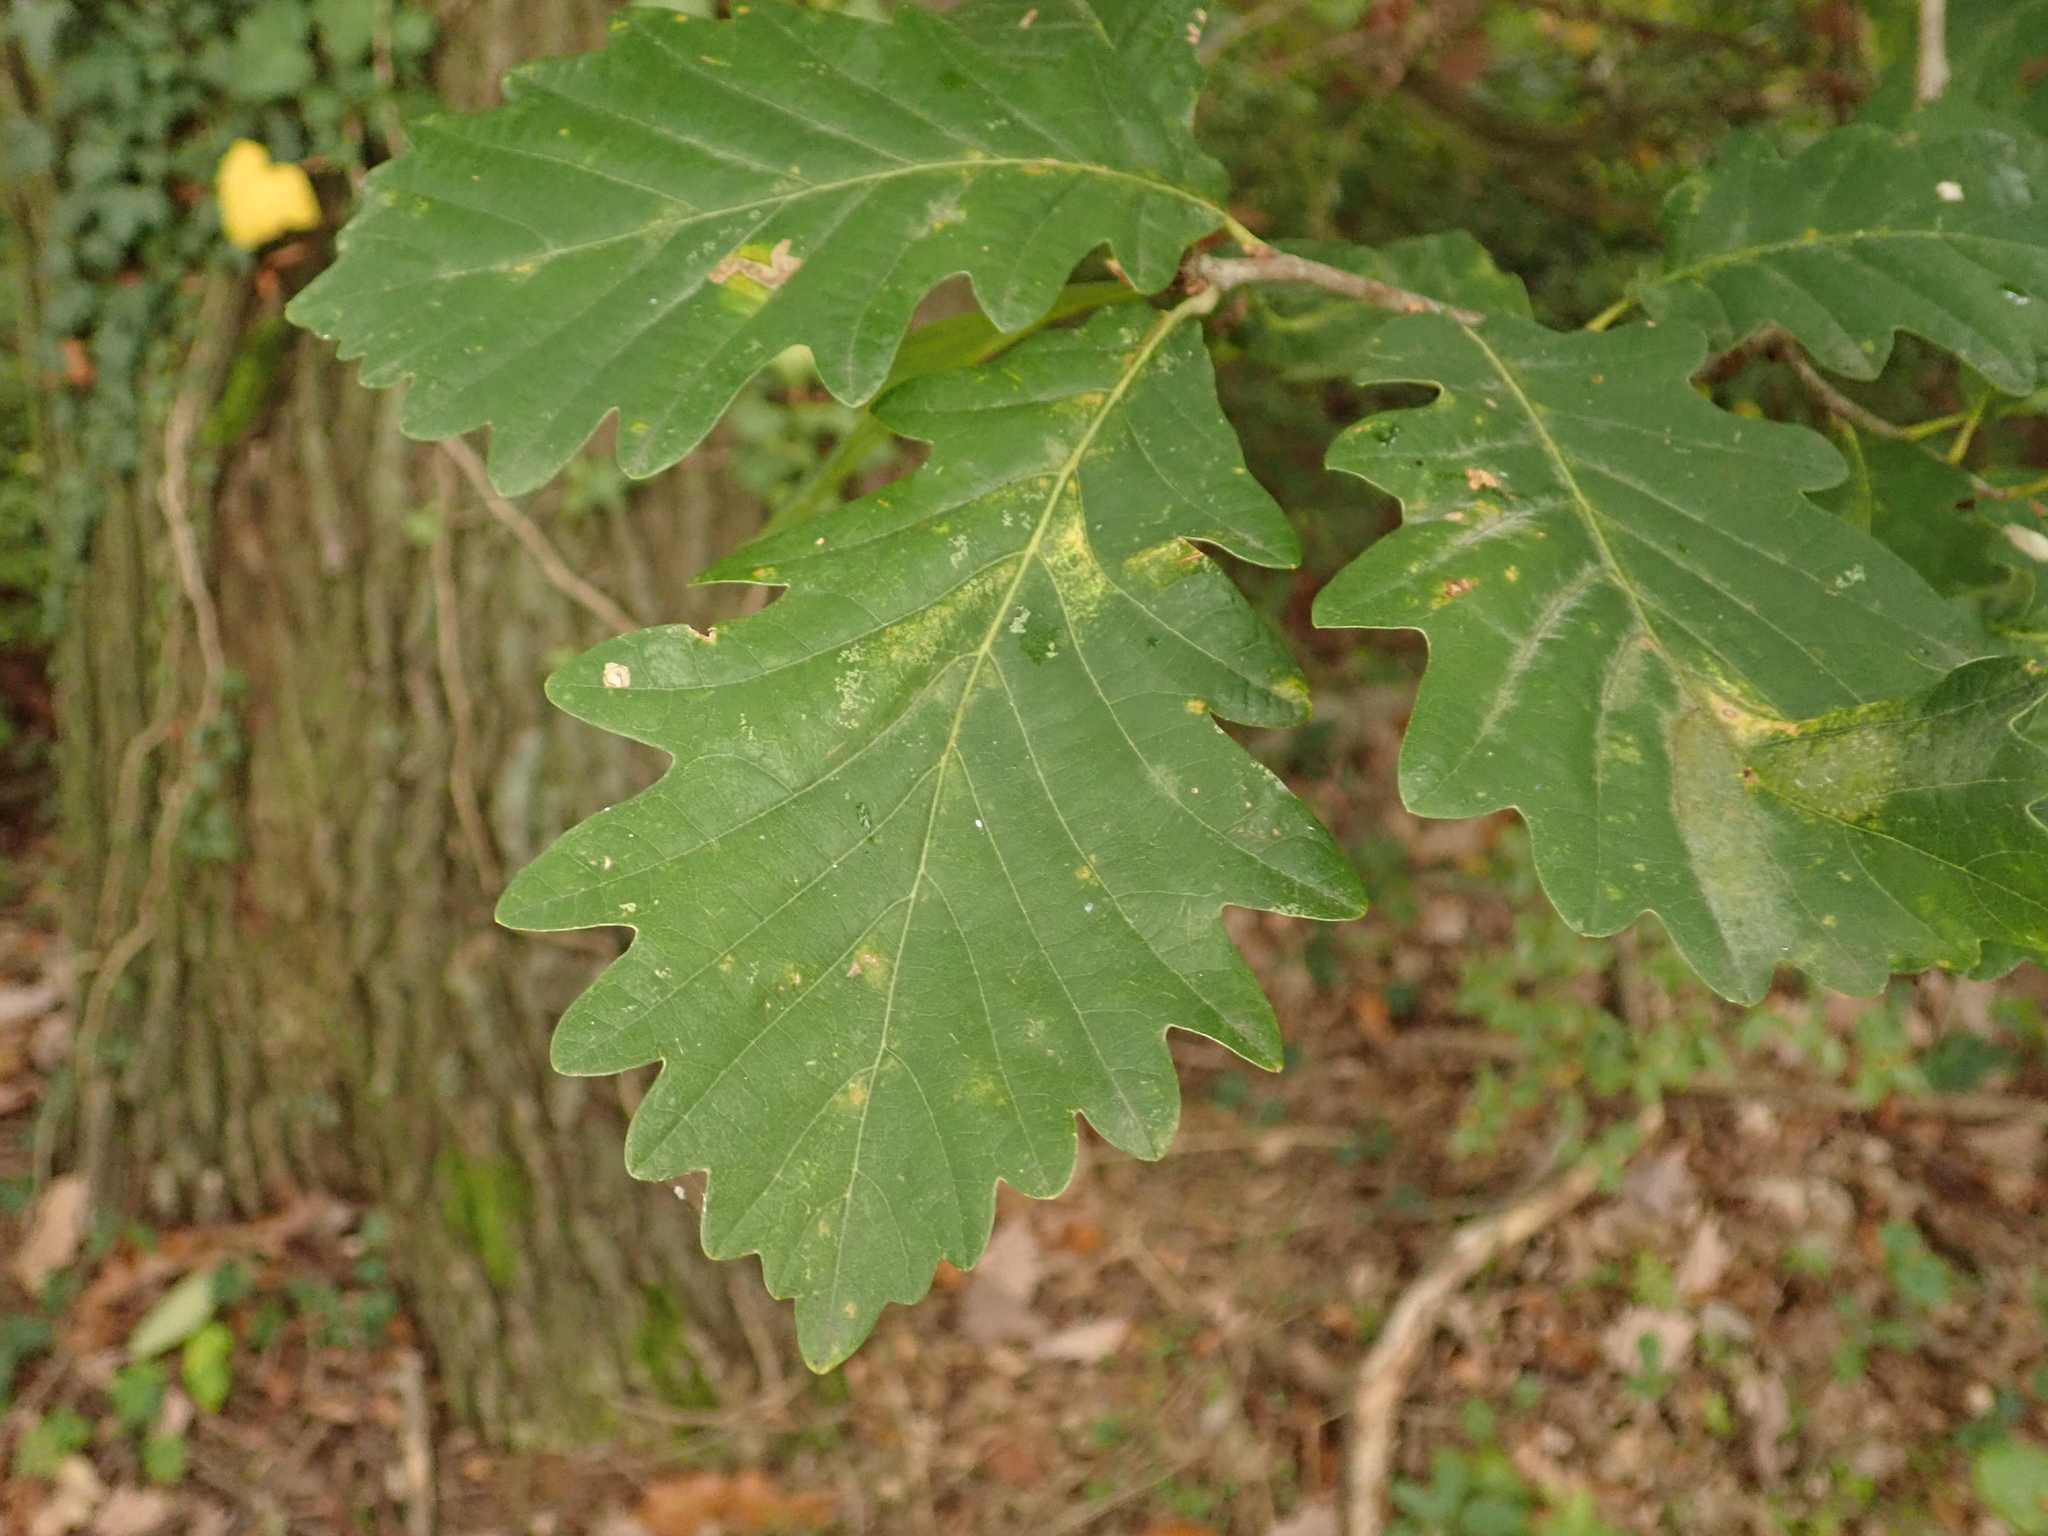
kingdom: Plantae
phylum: Tracheophyta
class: Magnoliopsida
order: Fagales
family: Fagaceae
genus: Quercus
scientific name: Quercus petraea
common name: Sessile oak
